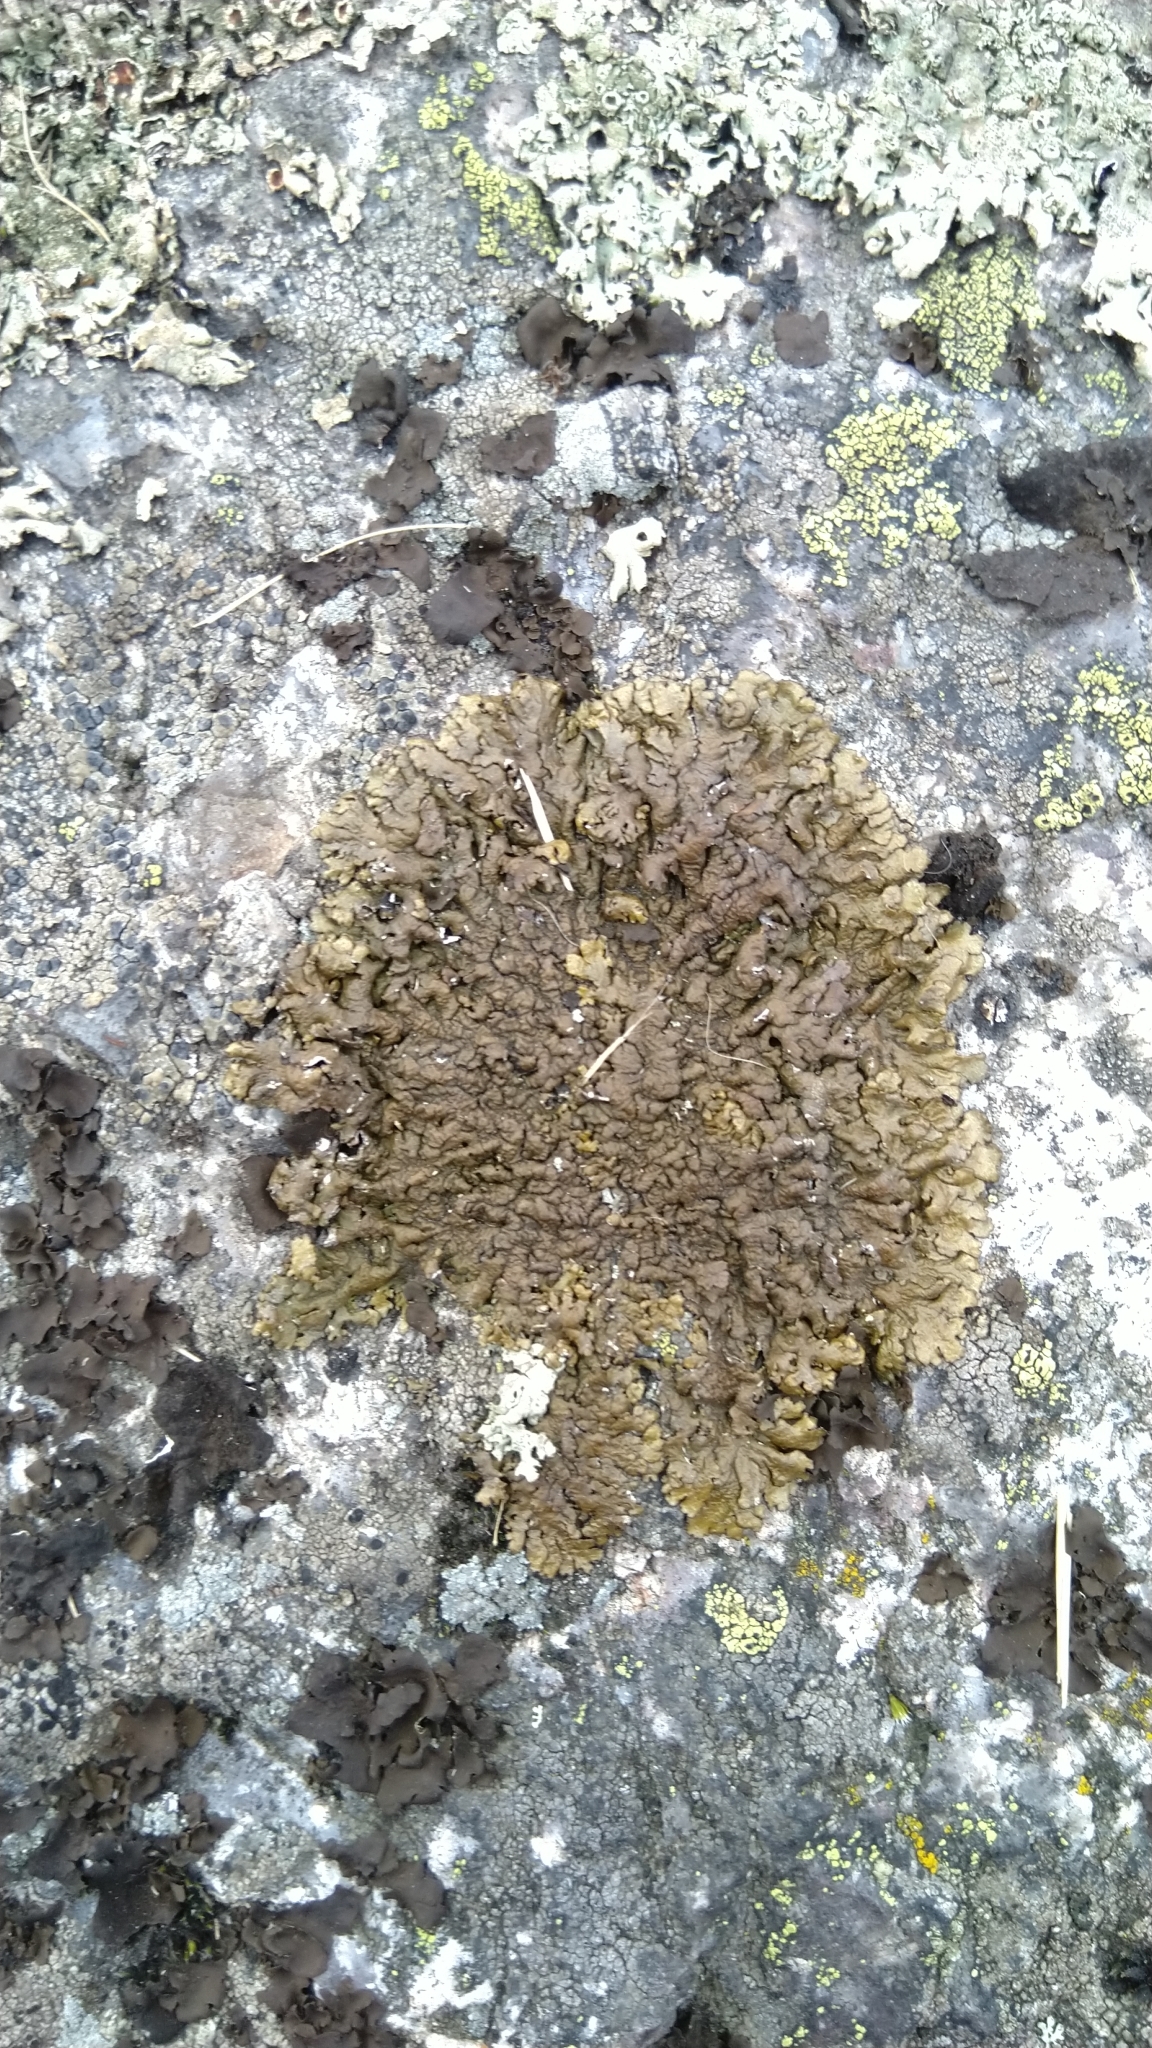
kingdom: Fungi
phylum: Ascomycota
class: Lecanoromycetes
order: Lecanorales
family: Parmeliaceae
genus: Xanthoparmelia
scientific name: Xanthoparmelia pulla
